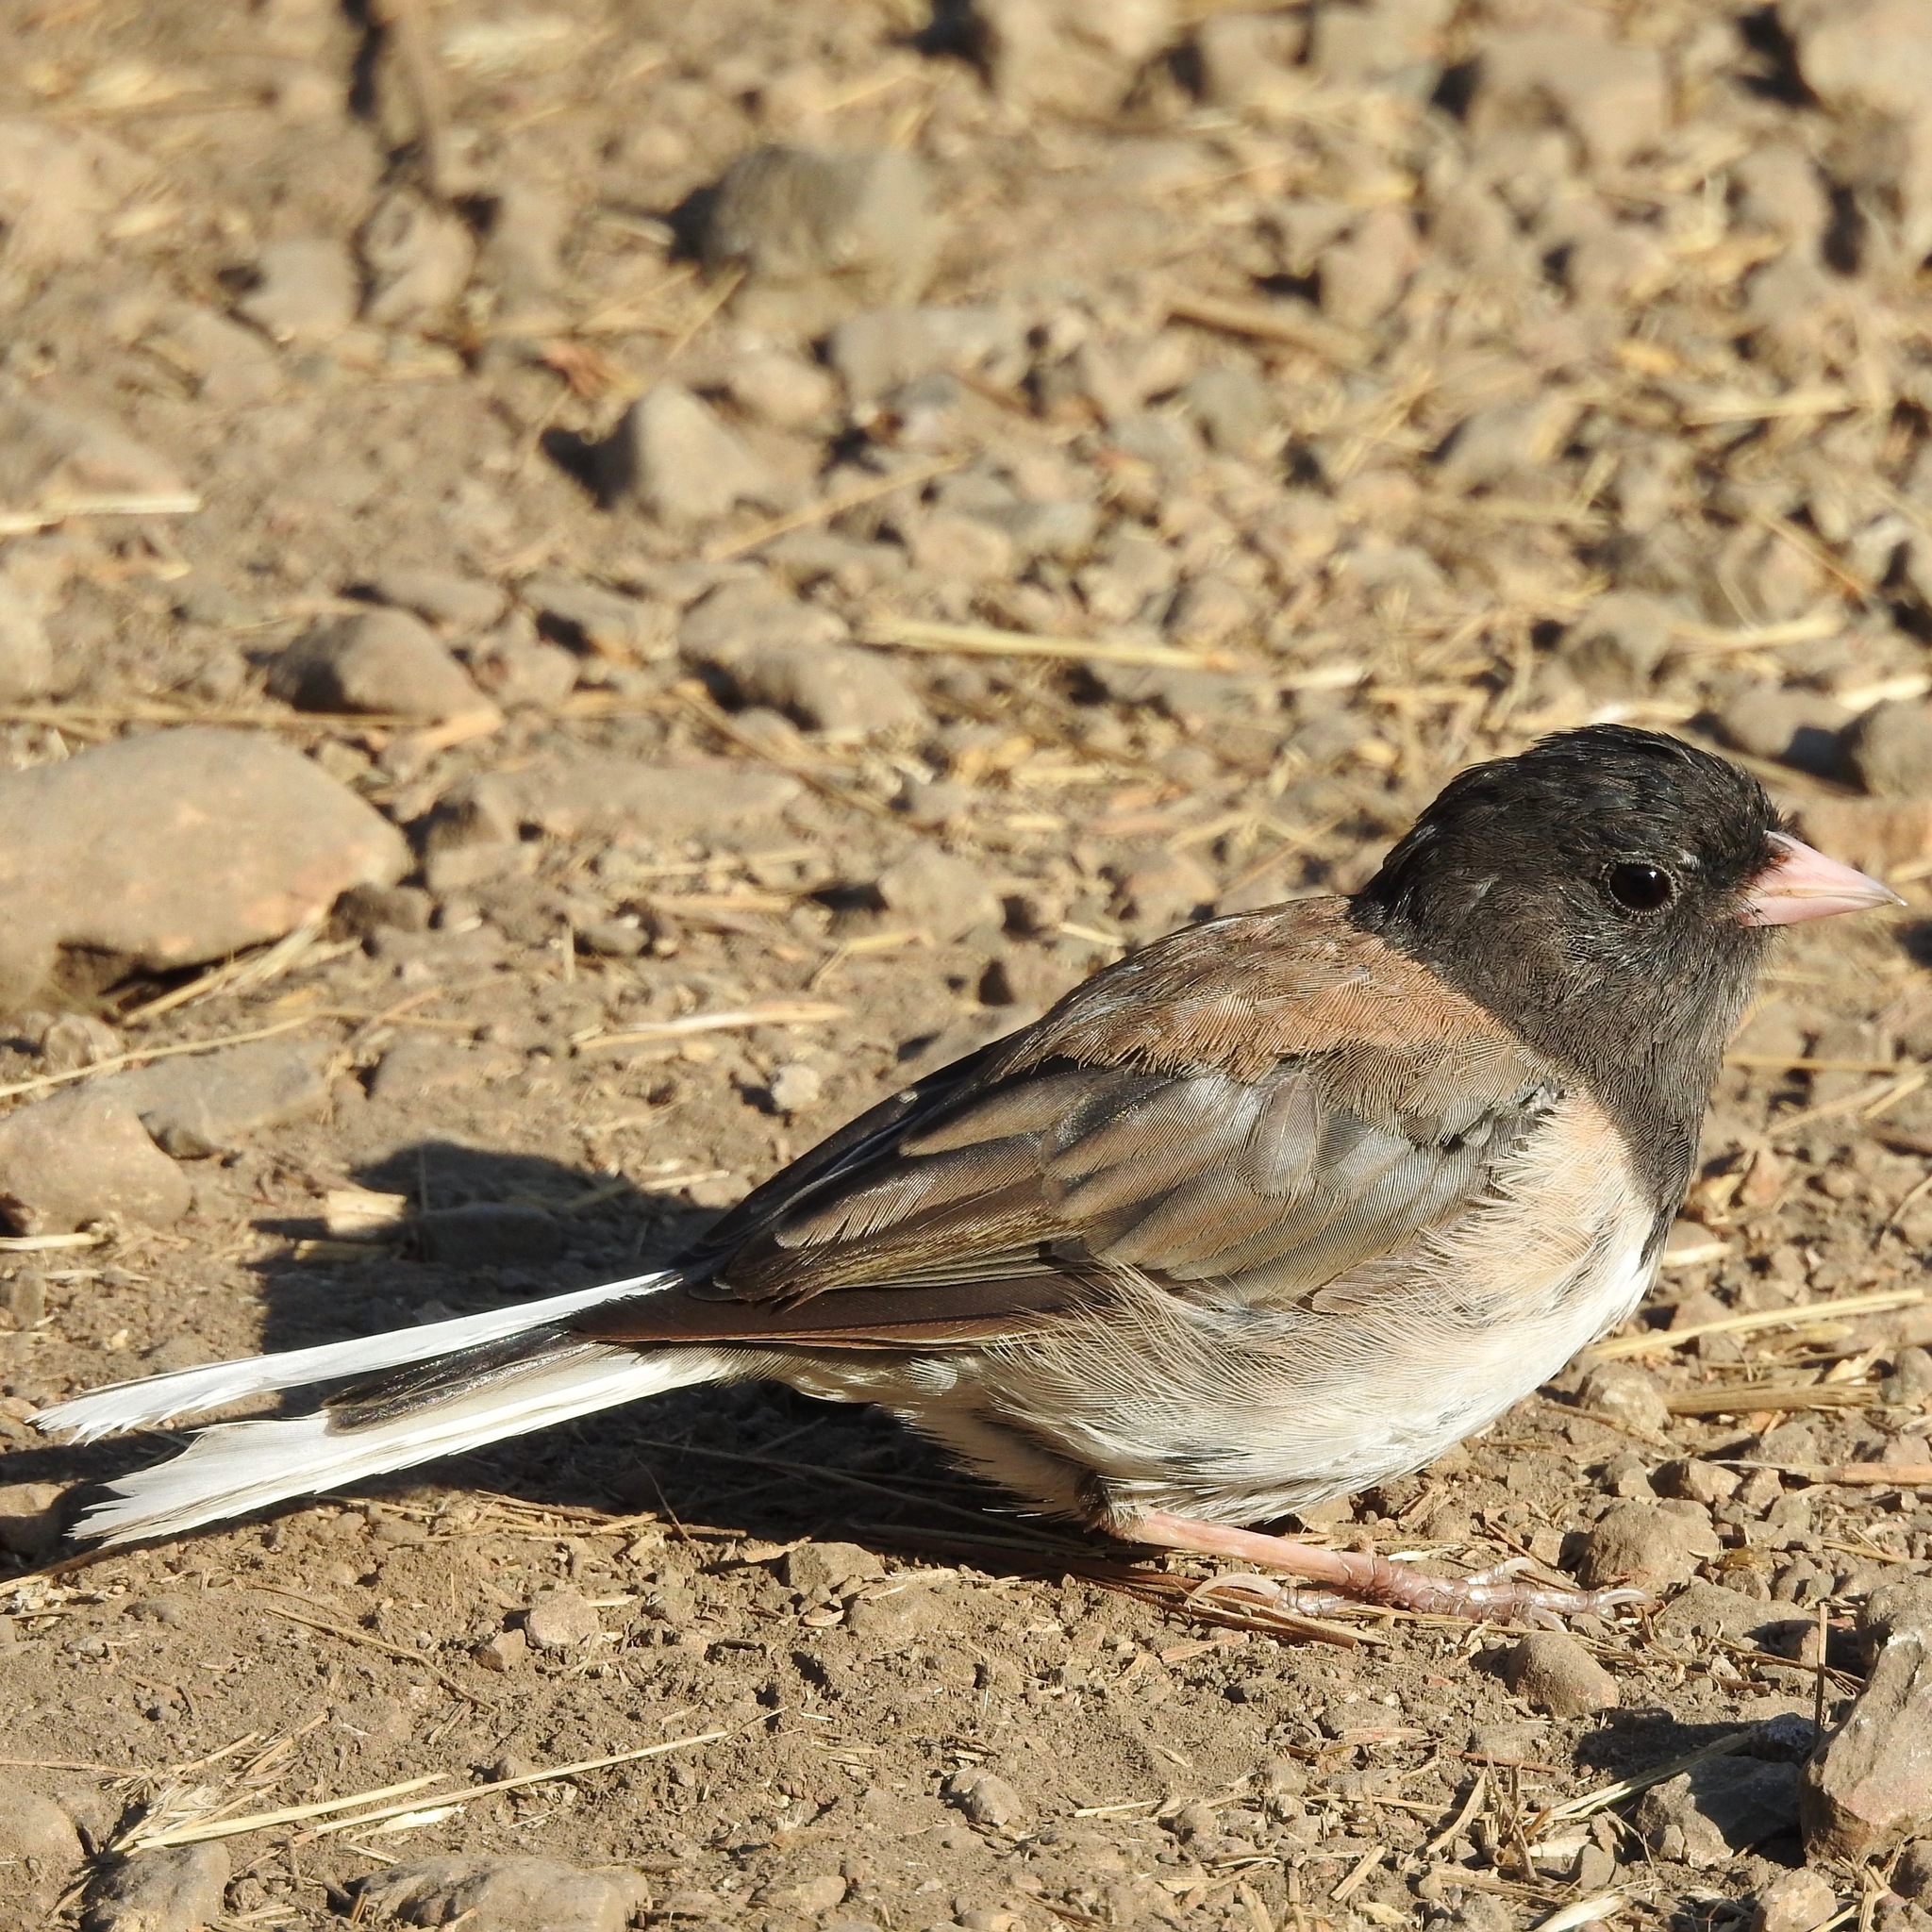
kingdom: Animalia
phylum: Chordata
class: Aves
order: Passeriformes
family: Passerellidae
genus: Junco
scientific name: Junco hyemalis
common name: Dark-eyed junco
